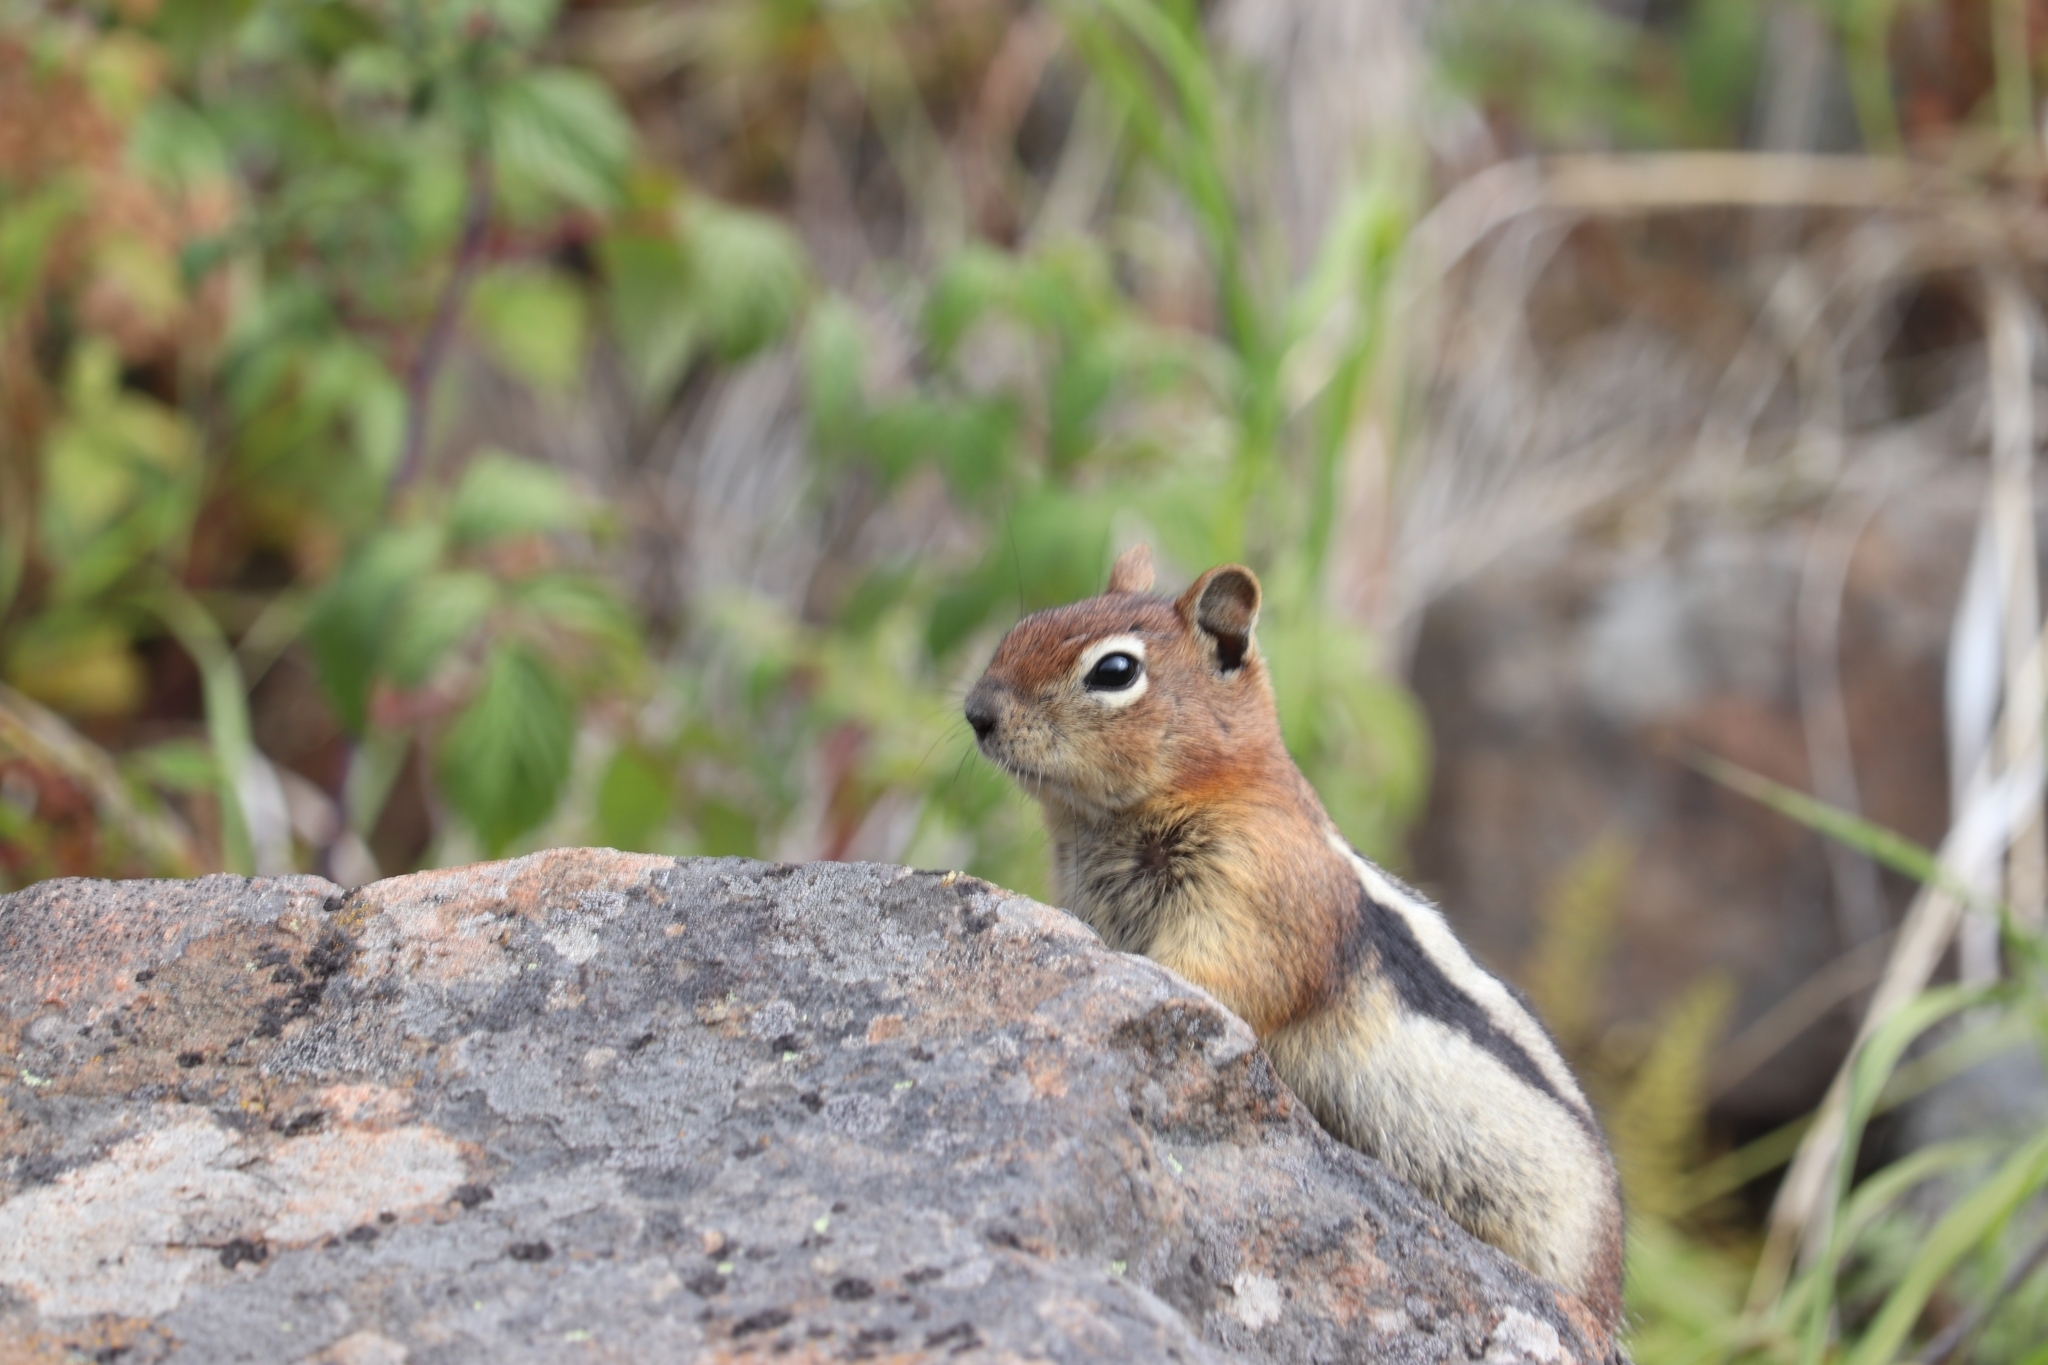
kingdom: Animalia
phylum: Chordata
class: Mammalia
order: Rodentia
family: Sciuridae
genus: Callospermophilus
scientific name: Callospermophilus lateralis
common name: Golden-mantled ground squirrel
